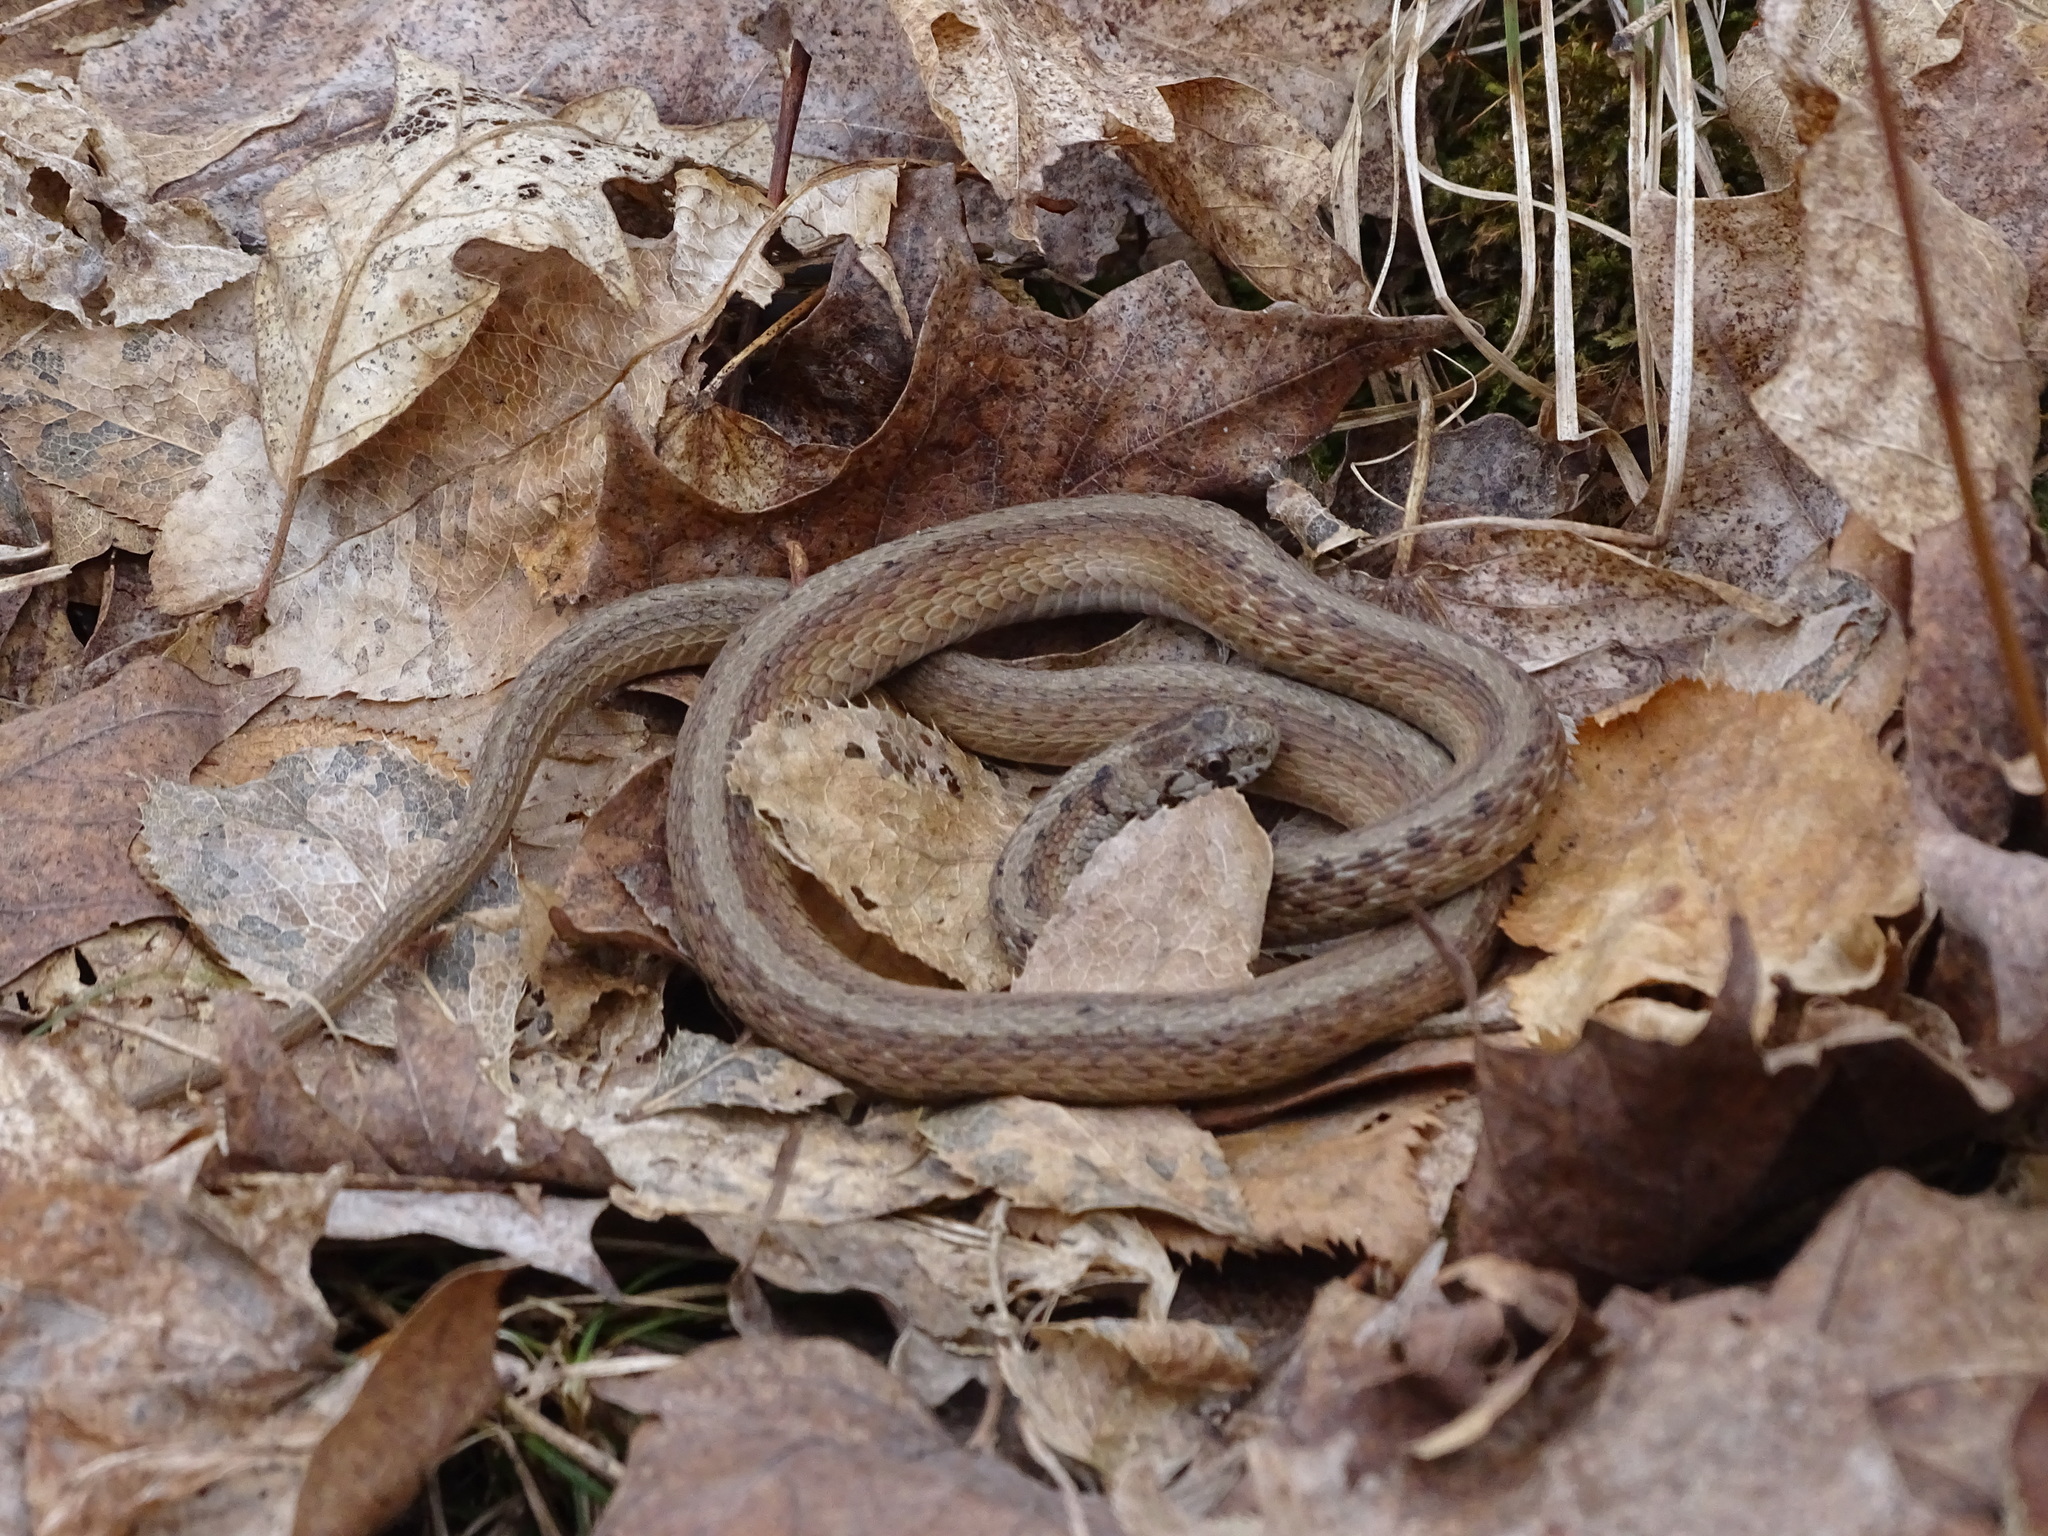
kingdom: Animalia
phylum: Chordata
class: Squamata
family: Colubridae
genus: Storeria
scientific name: Storeria dekayi
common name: (dekay’s) brown snake
